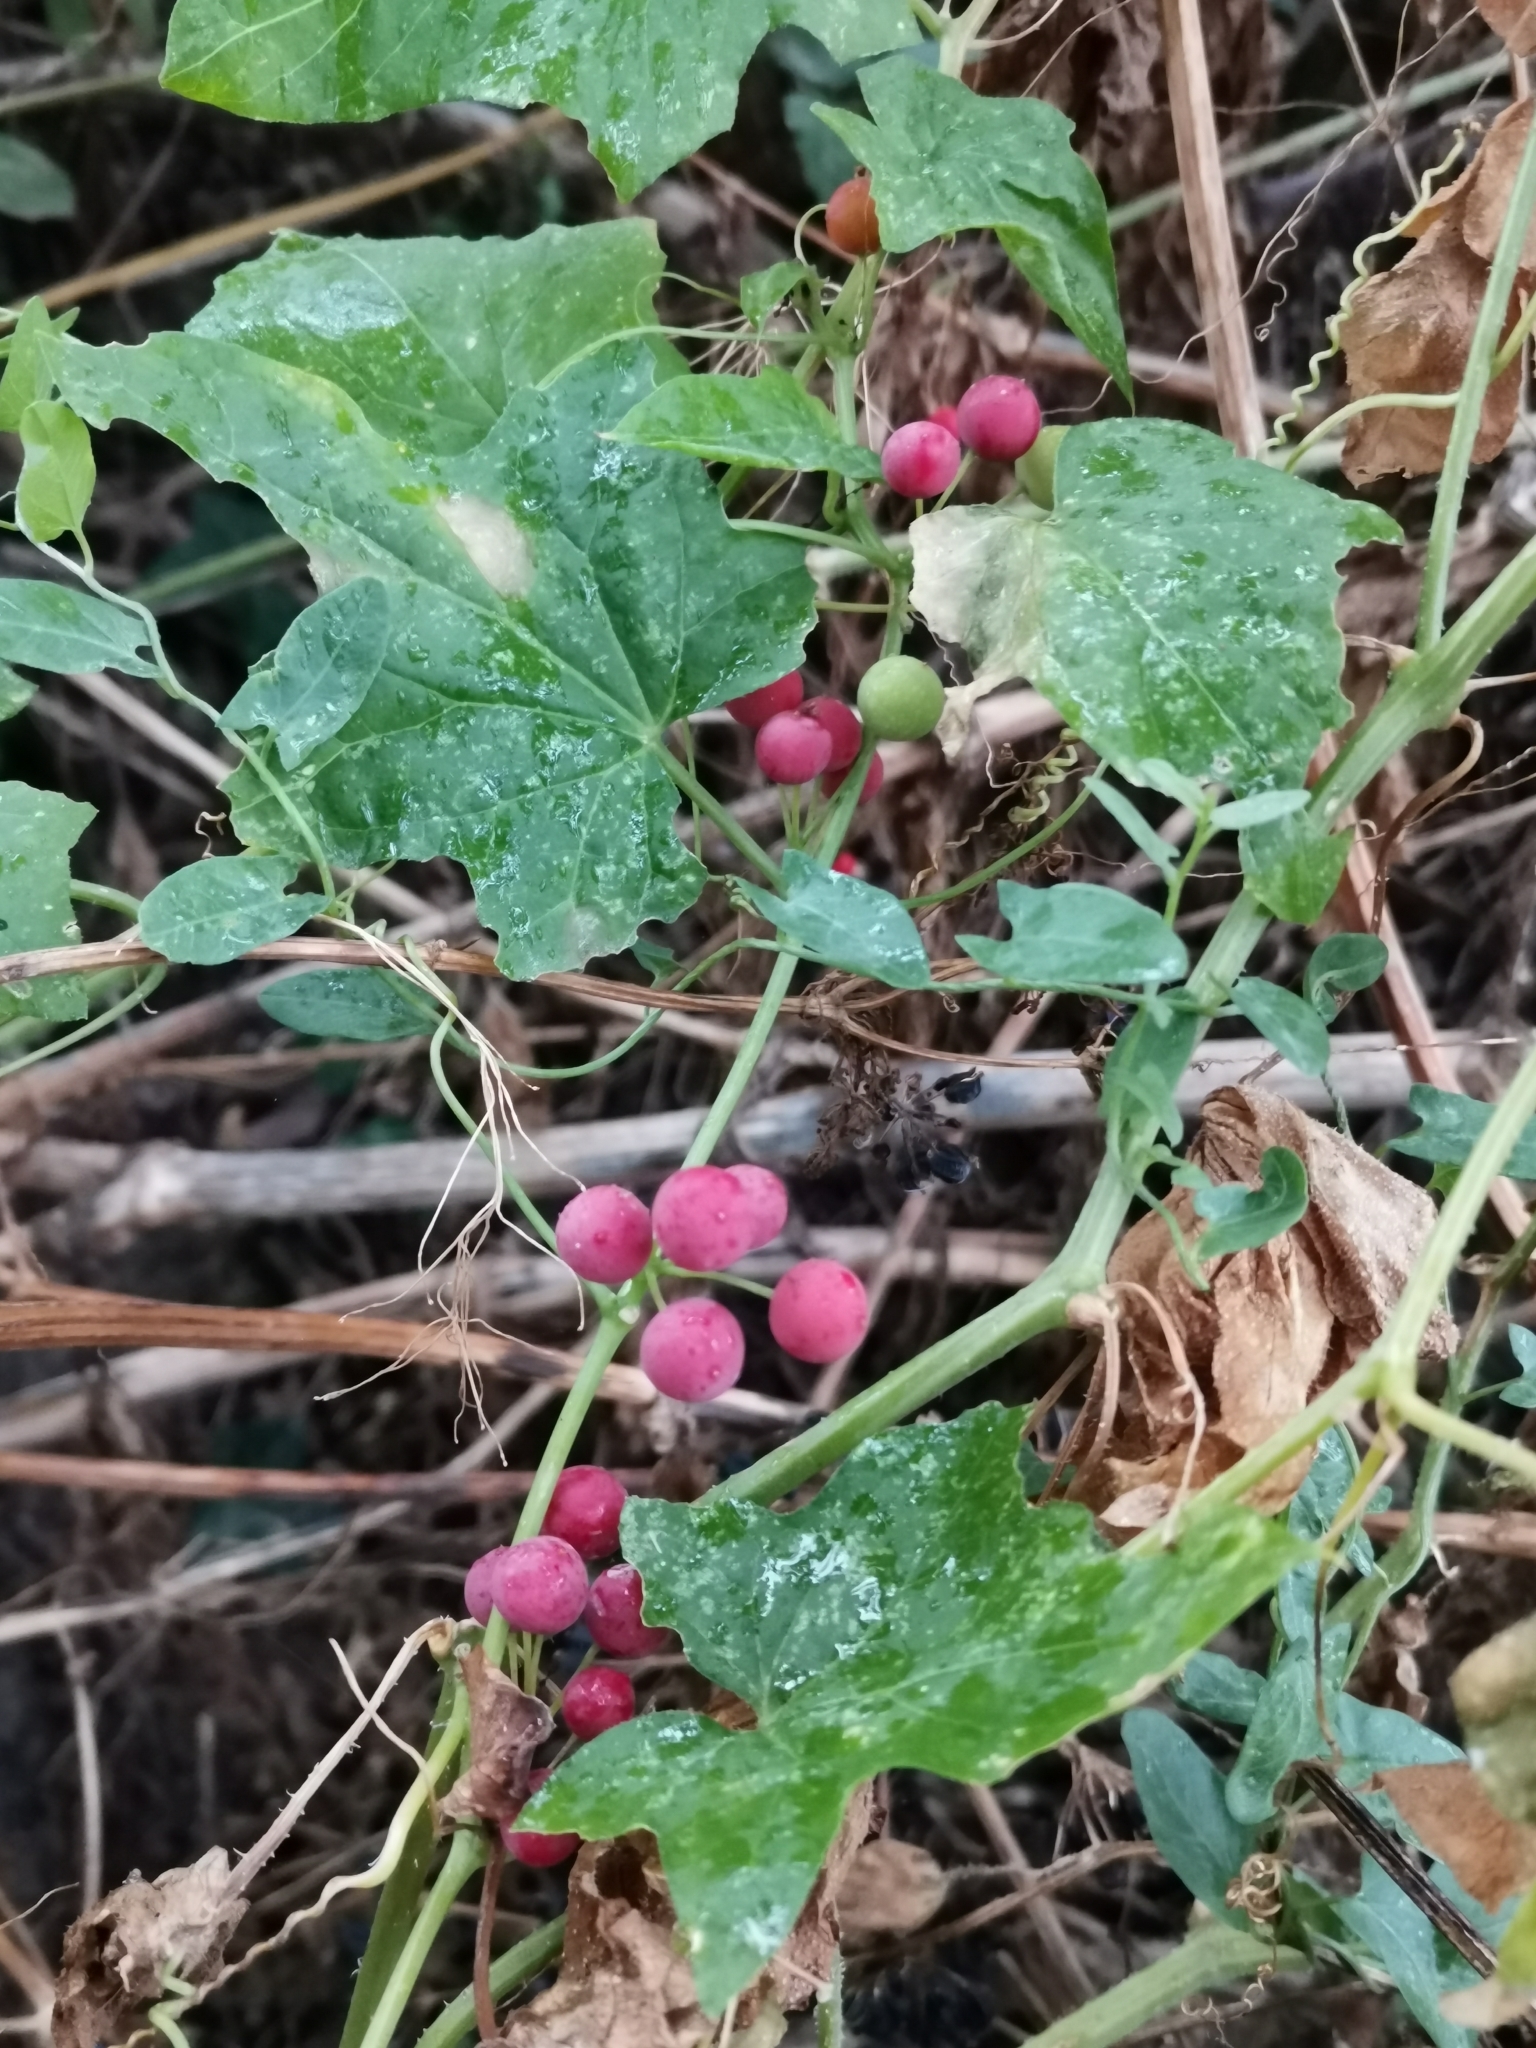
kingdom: Plantae
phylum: Tracheophyta
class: Magnoliopsida
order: Cucurbitales
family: Cucurbitaceae
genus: Bryonia
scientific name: Bryonia cretica
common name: Cretan bryony
